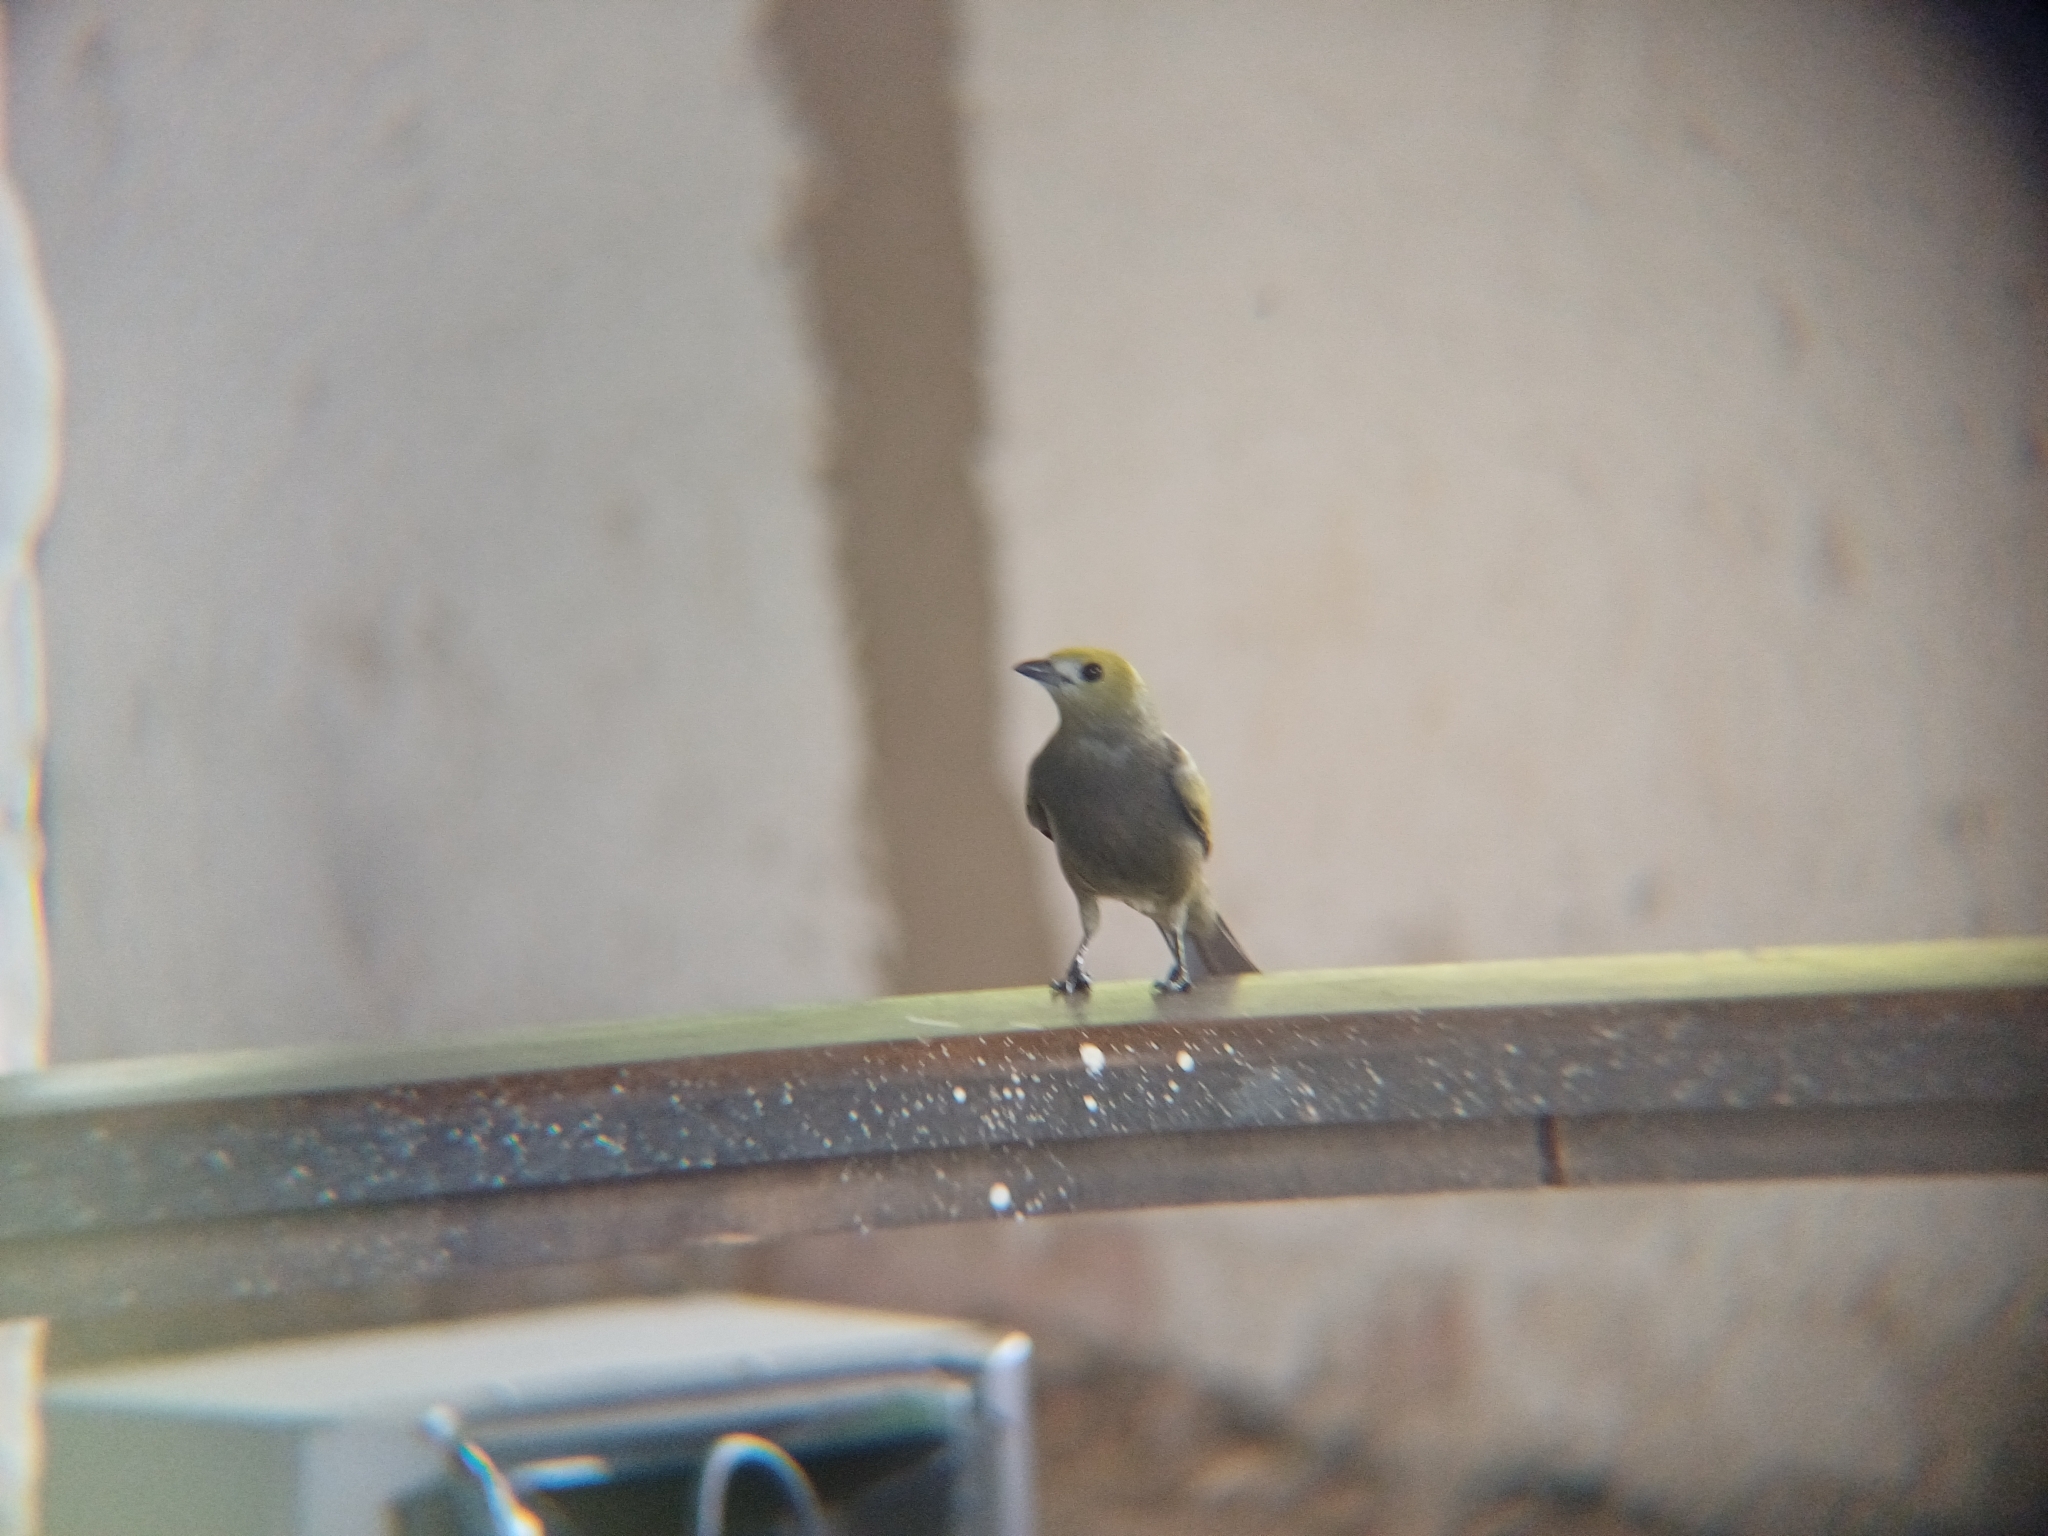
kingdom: Animalia
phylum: Chordata
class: Aves
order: Passeriformes
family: Thraupidae
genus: Thraupis
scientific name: Thraupis palmarum
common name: Palm tanager
